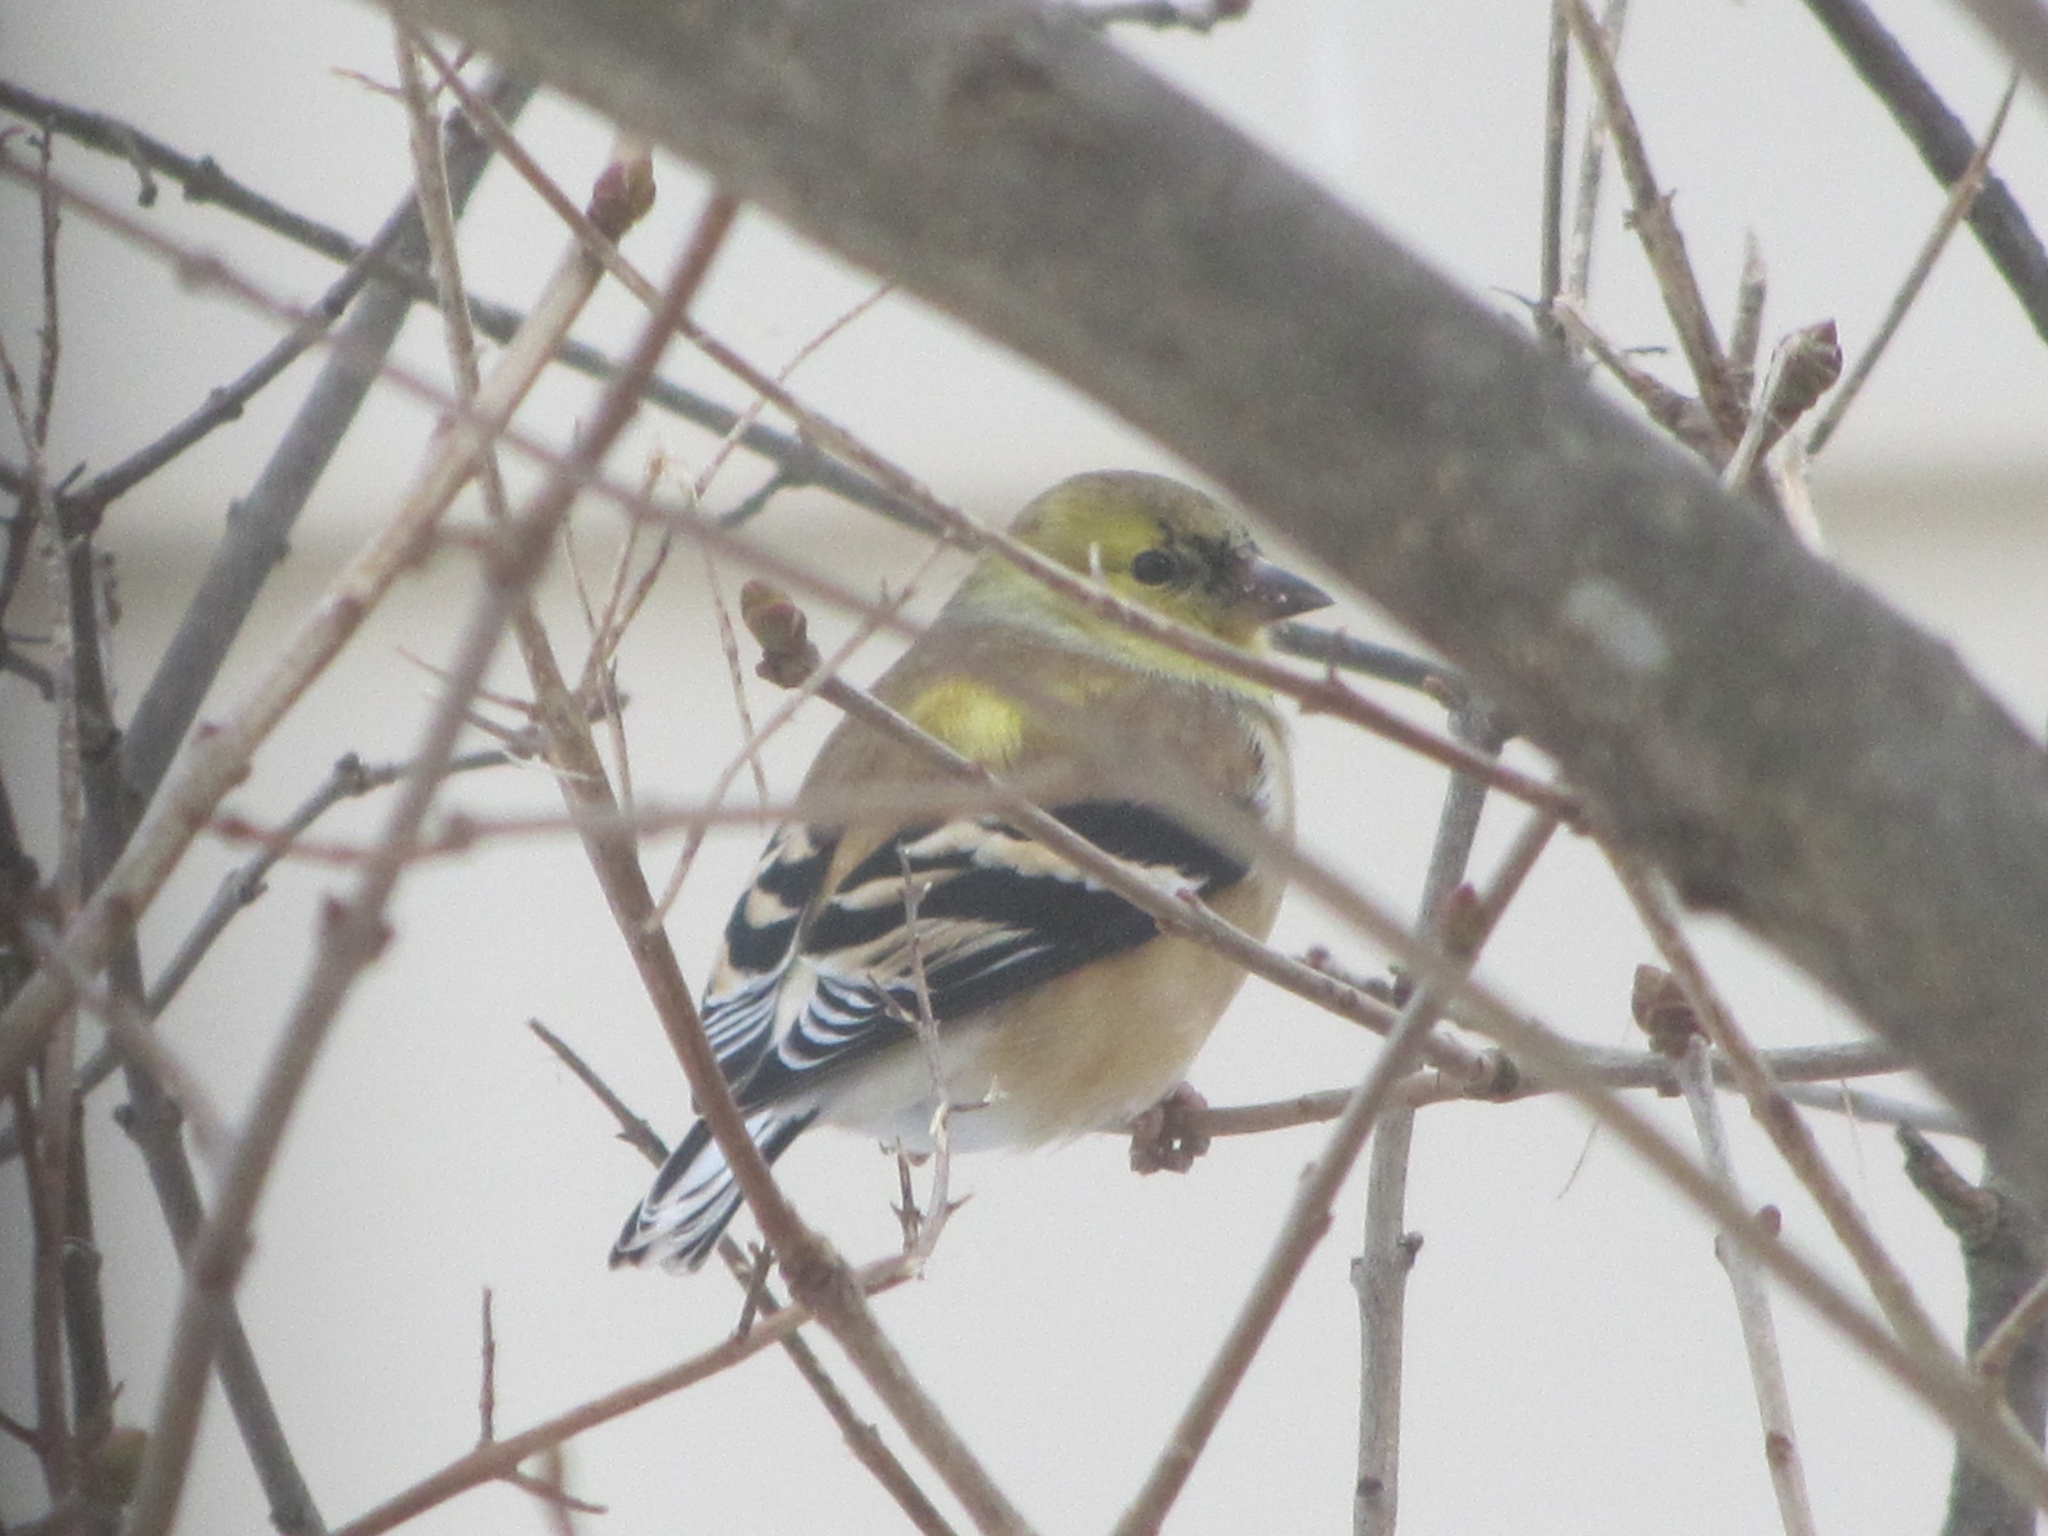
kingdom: Animalia
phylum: Chordata
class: Aves
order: Passeriformes
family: Fringillidae
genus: Spinus
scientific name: Spinus tristis
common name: American goldfinch
